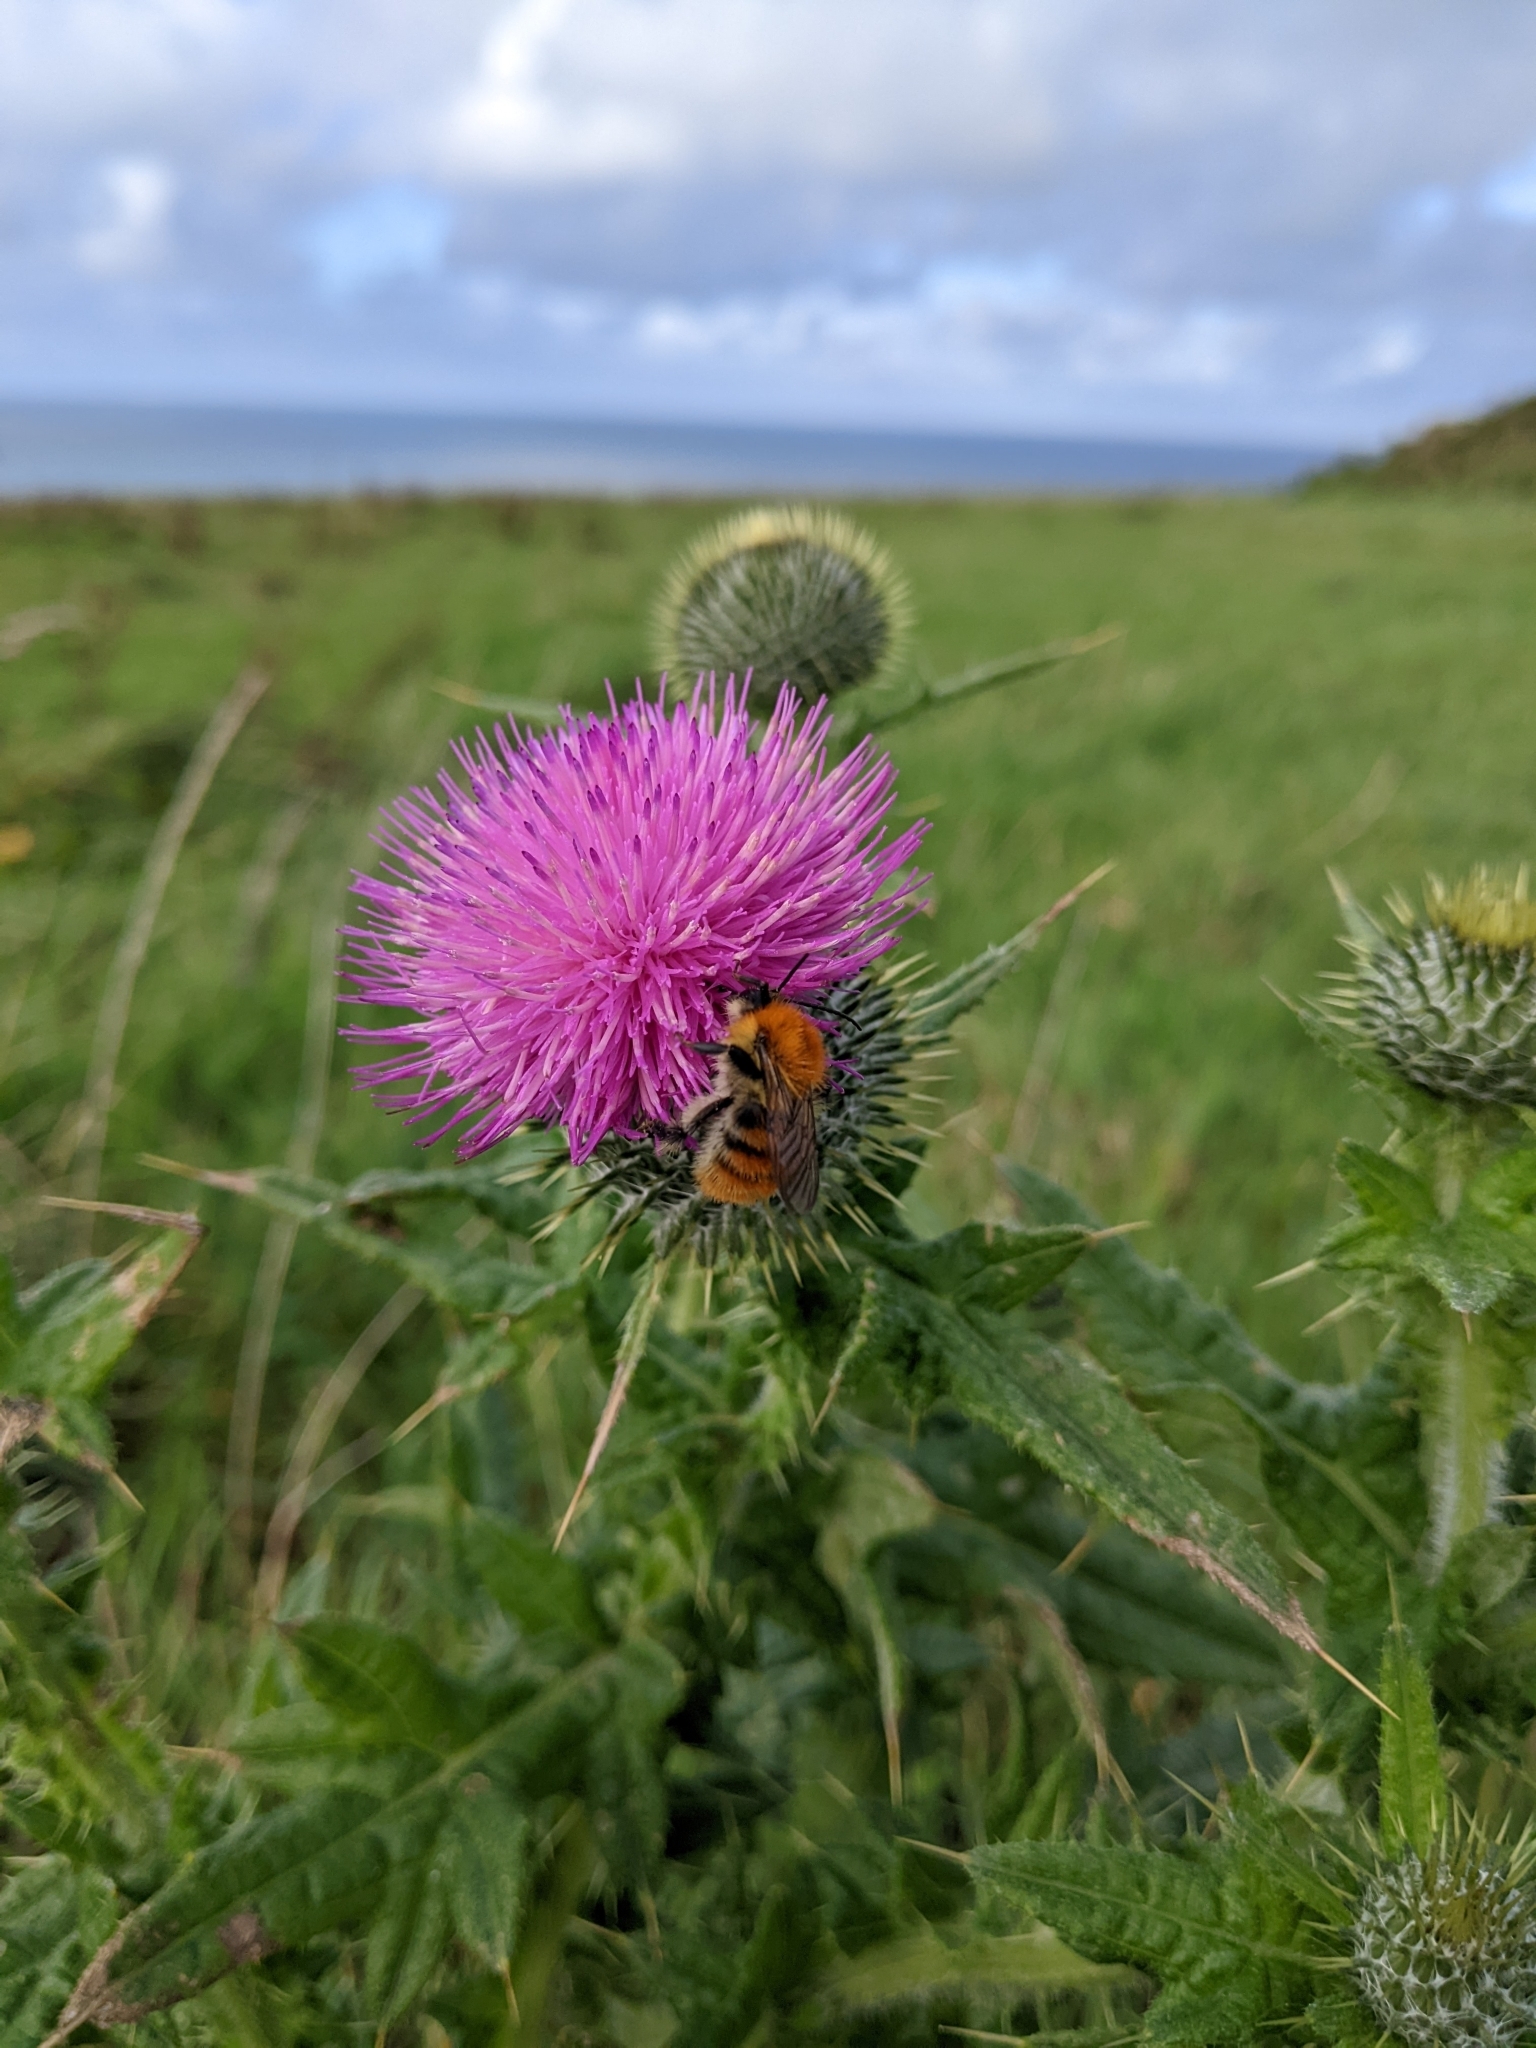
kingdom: Animalia
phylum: Arthropoda
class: Insecta
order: Hymenoptera
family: Apidae
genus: Bombus
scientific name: Bombus pascuorum
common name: Common carder bee
